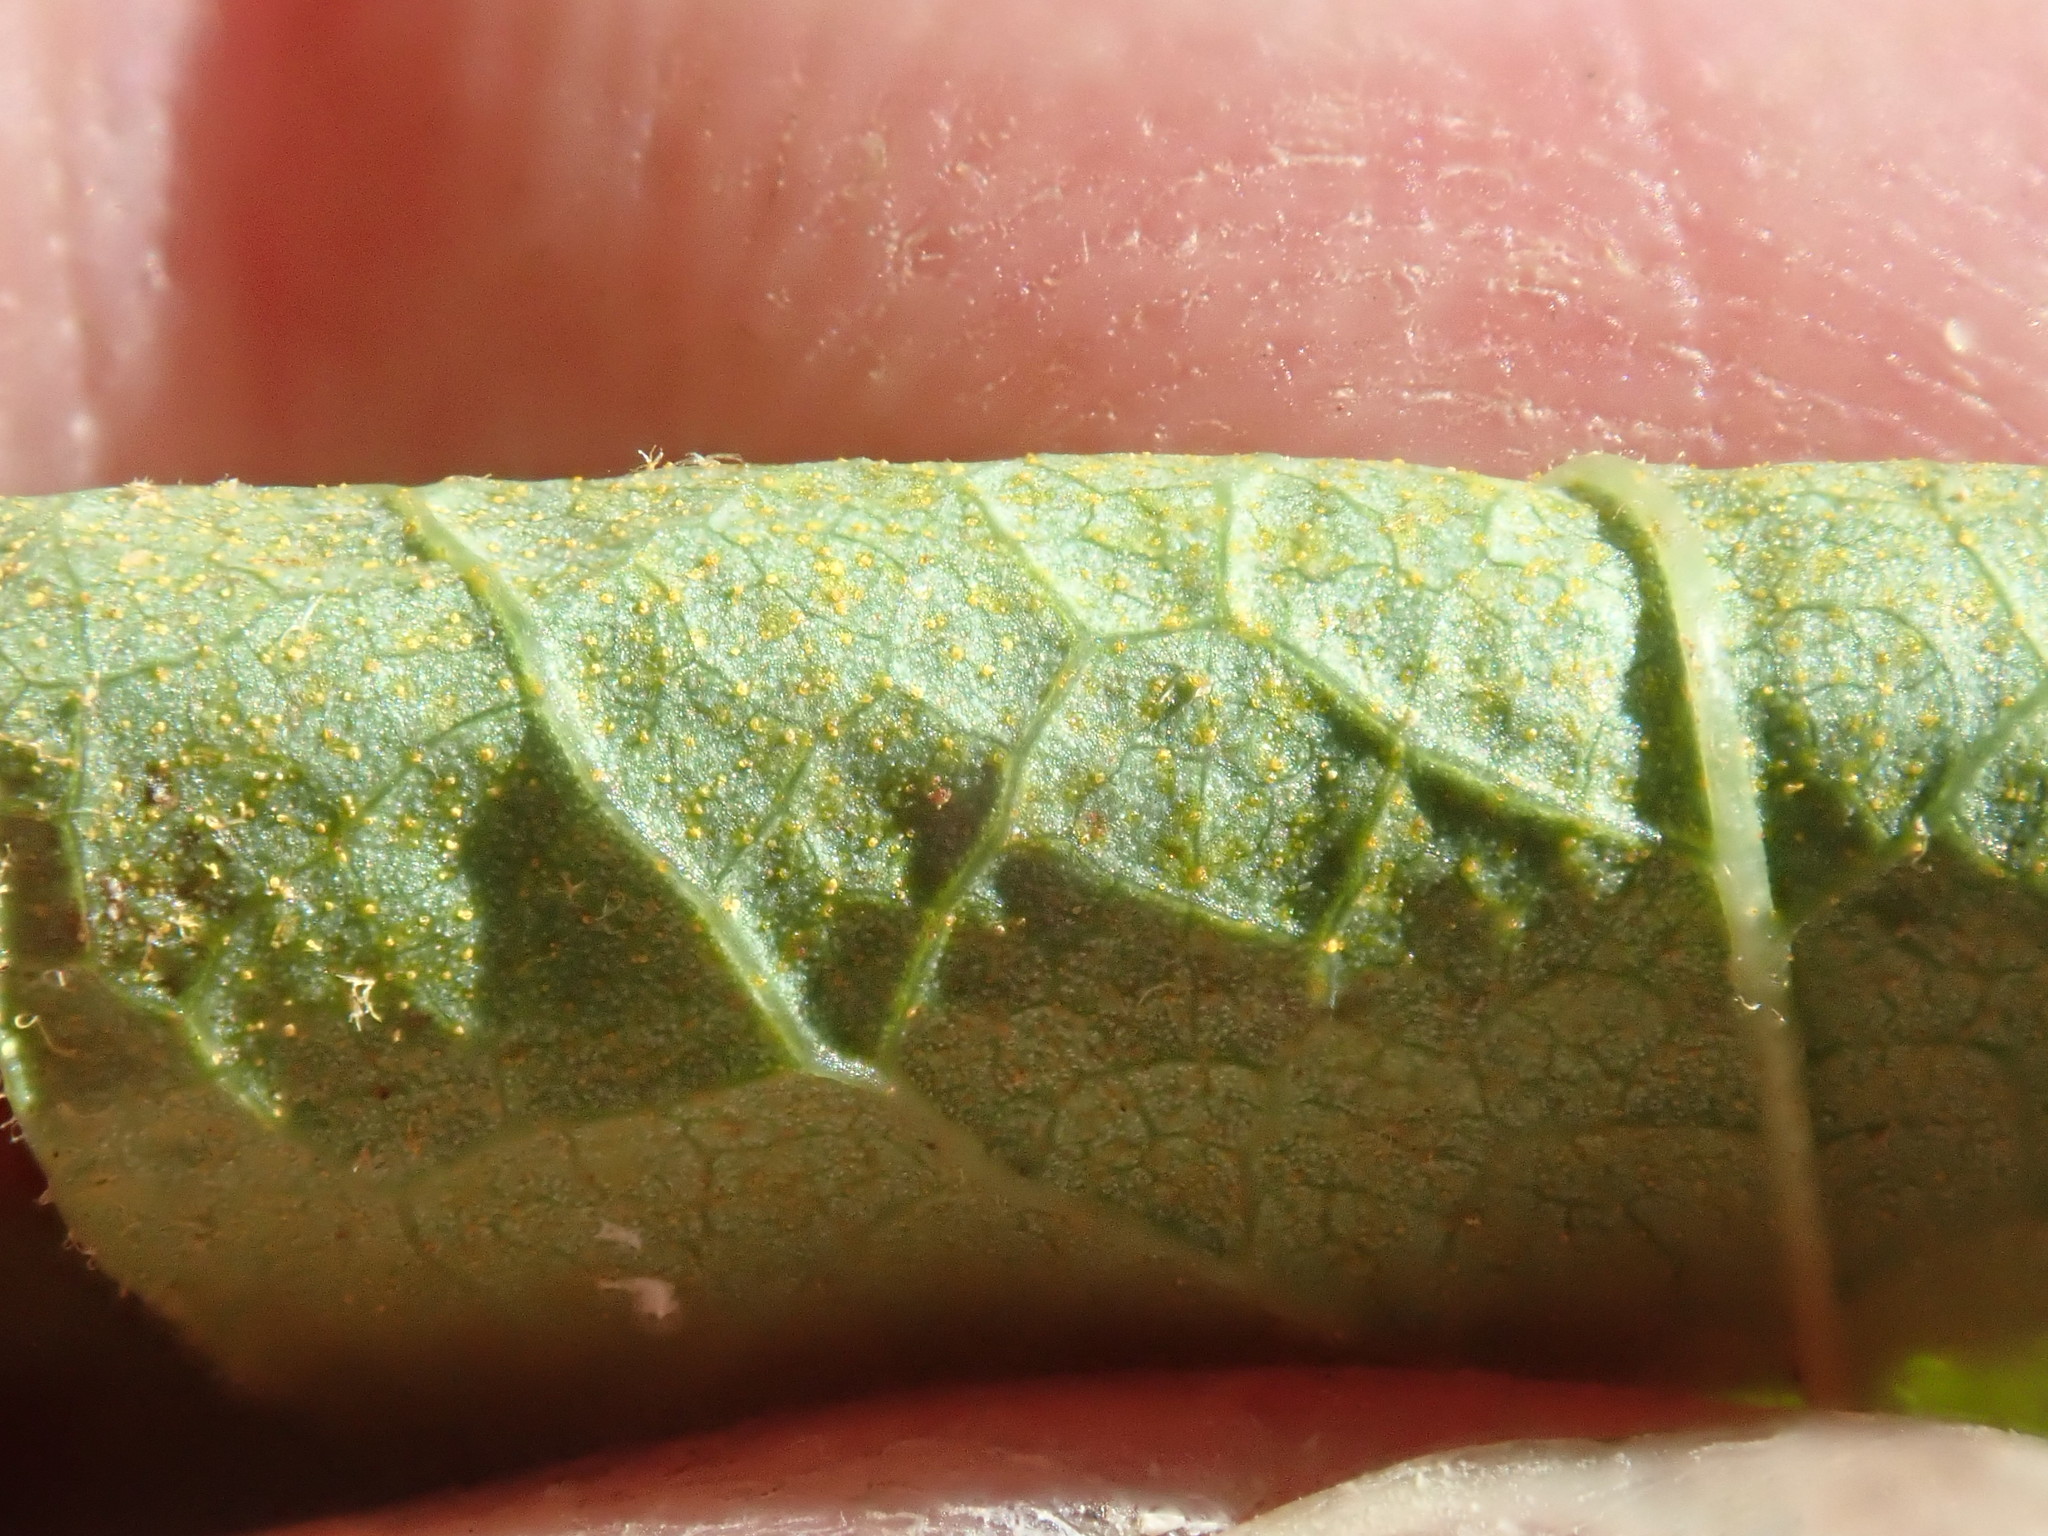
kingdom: Plantae
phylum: Tracheophyta
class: Magnoliopsida
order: Ericales
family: Ericaceae
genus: Gaylussacia
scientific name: Gaylussacia baccata
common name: Black huckleberry
